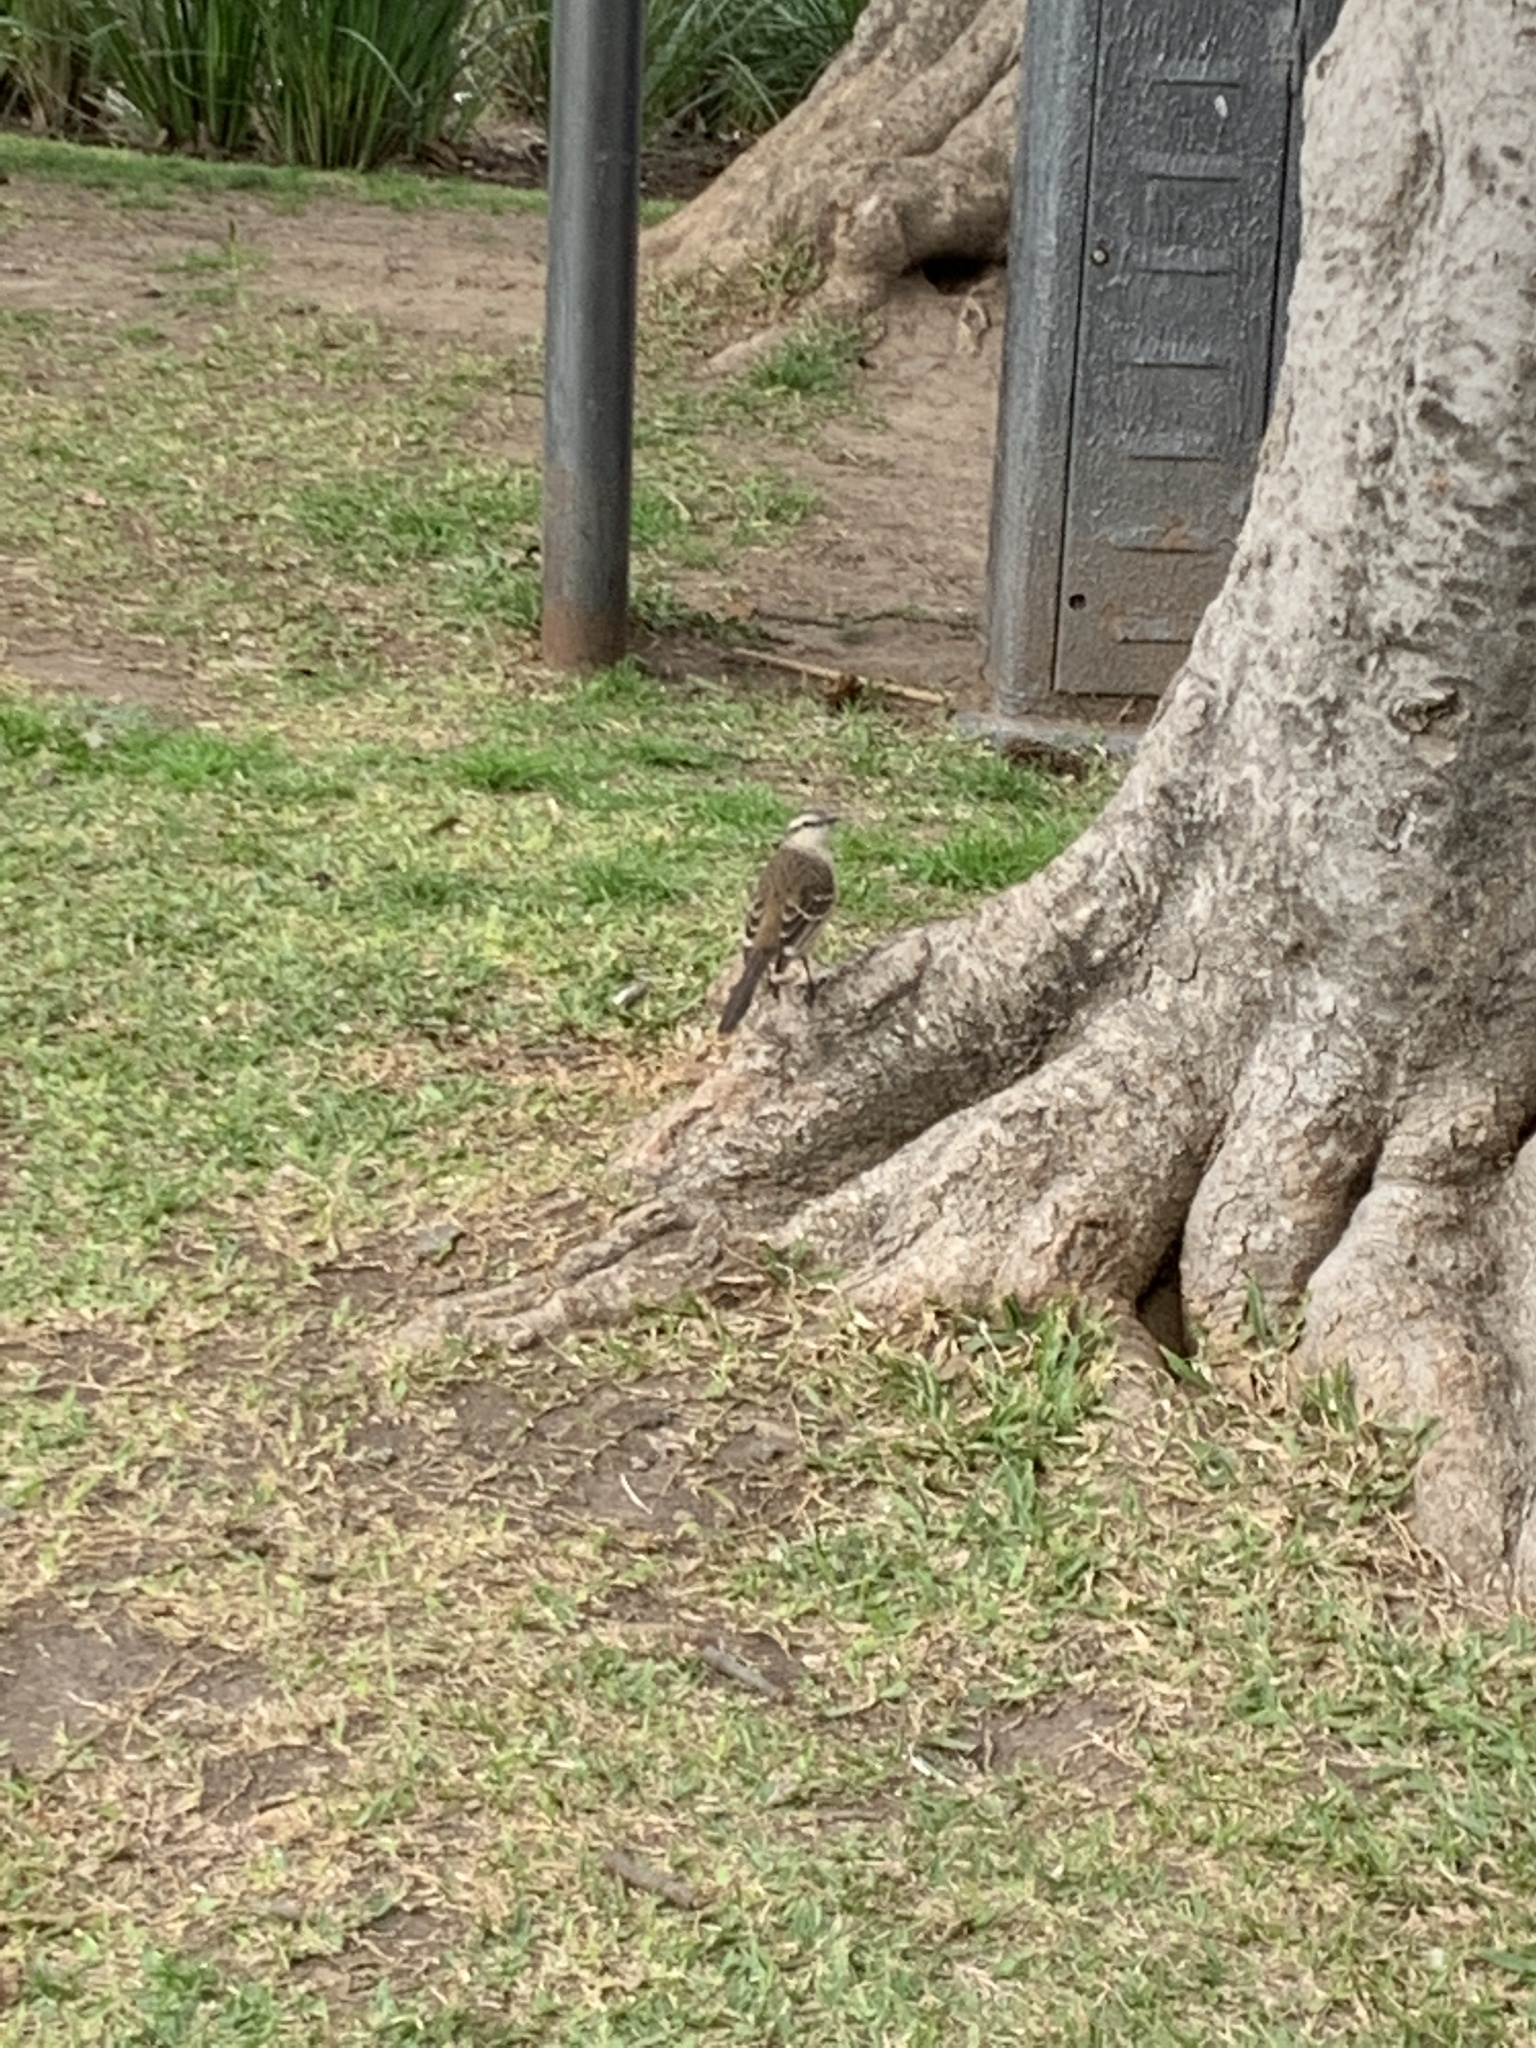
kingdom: Animalia
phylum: Chordata
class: Aves
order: Passeriformes
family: Mimidae
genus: Mimus
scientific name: Mimus saturninus
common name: Chalk-browed mockingbird
